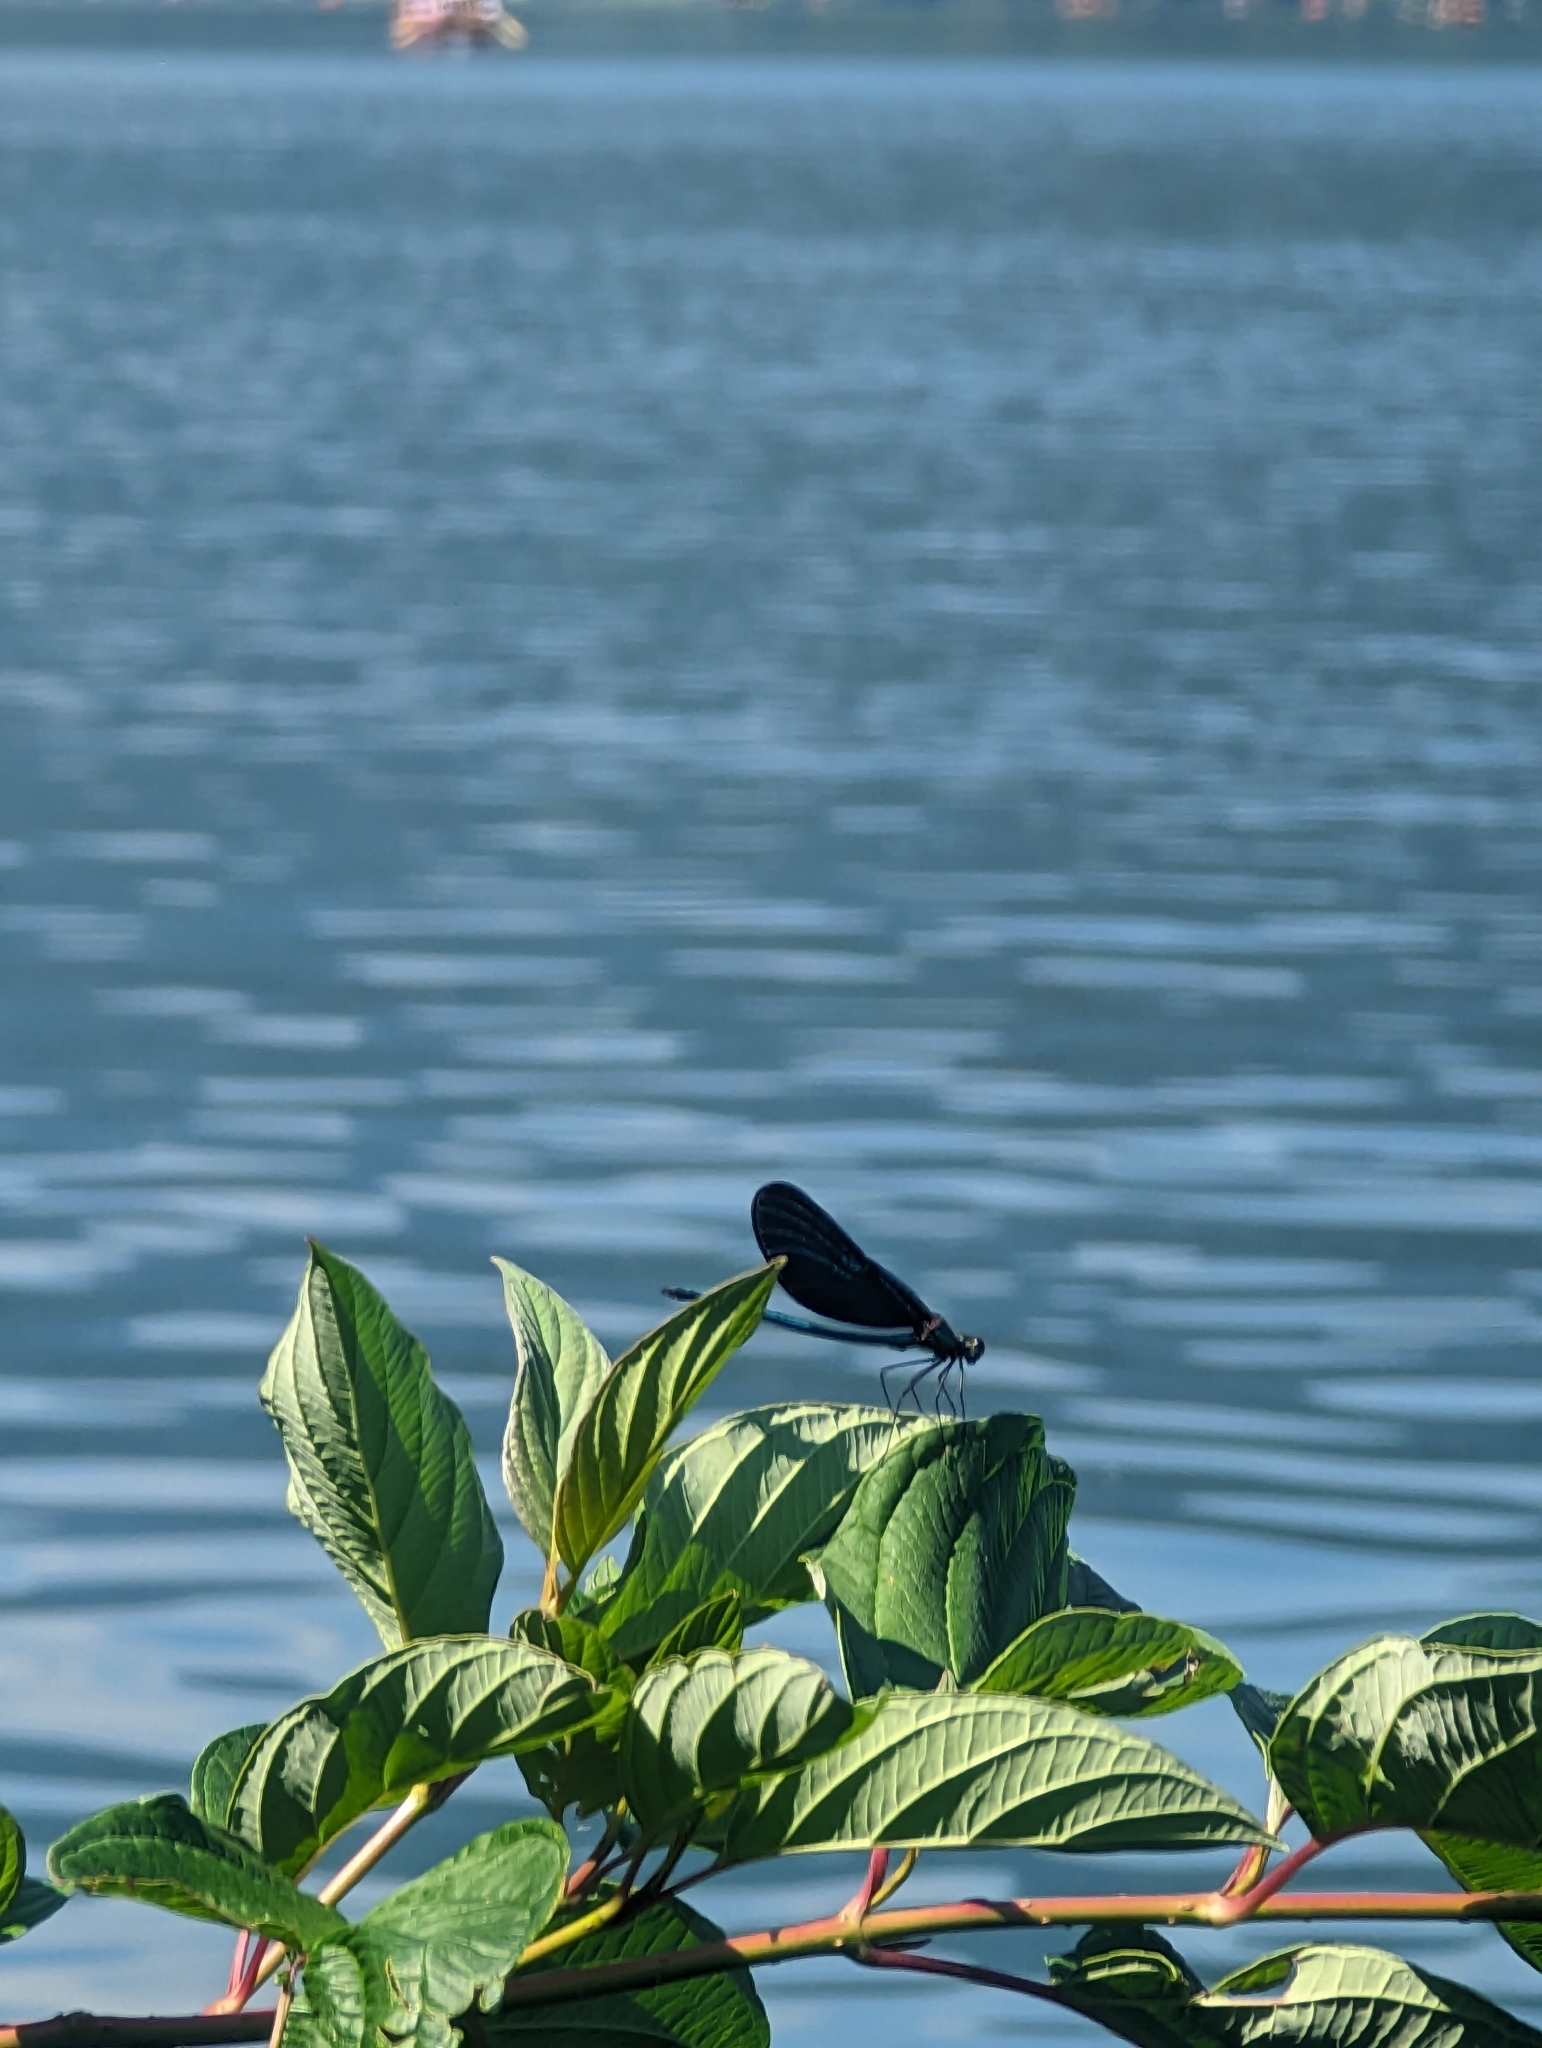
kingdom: Animalia
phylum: Arthropoda
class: Insecta
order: Odonata
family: Calopterygidae
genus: Calopteryx
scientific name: Calopteryx virgo
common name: Beautiful demoiselle
